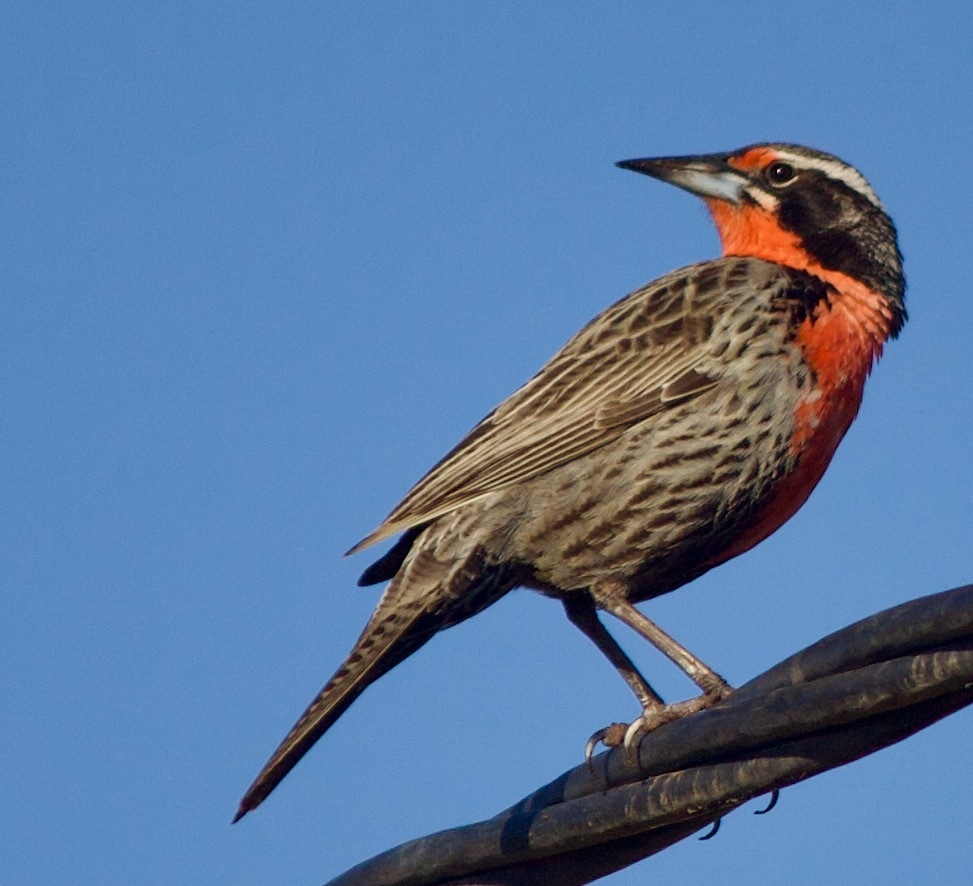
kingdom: Animalia
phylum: Chordata
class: Aves
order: Passeriformes
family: Icteridae
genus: Sturnella
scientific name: Sturnella loyca
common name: Long-tailed meadowlark
